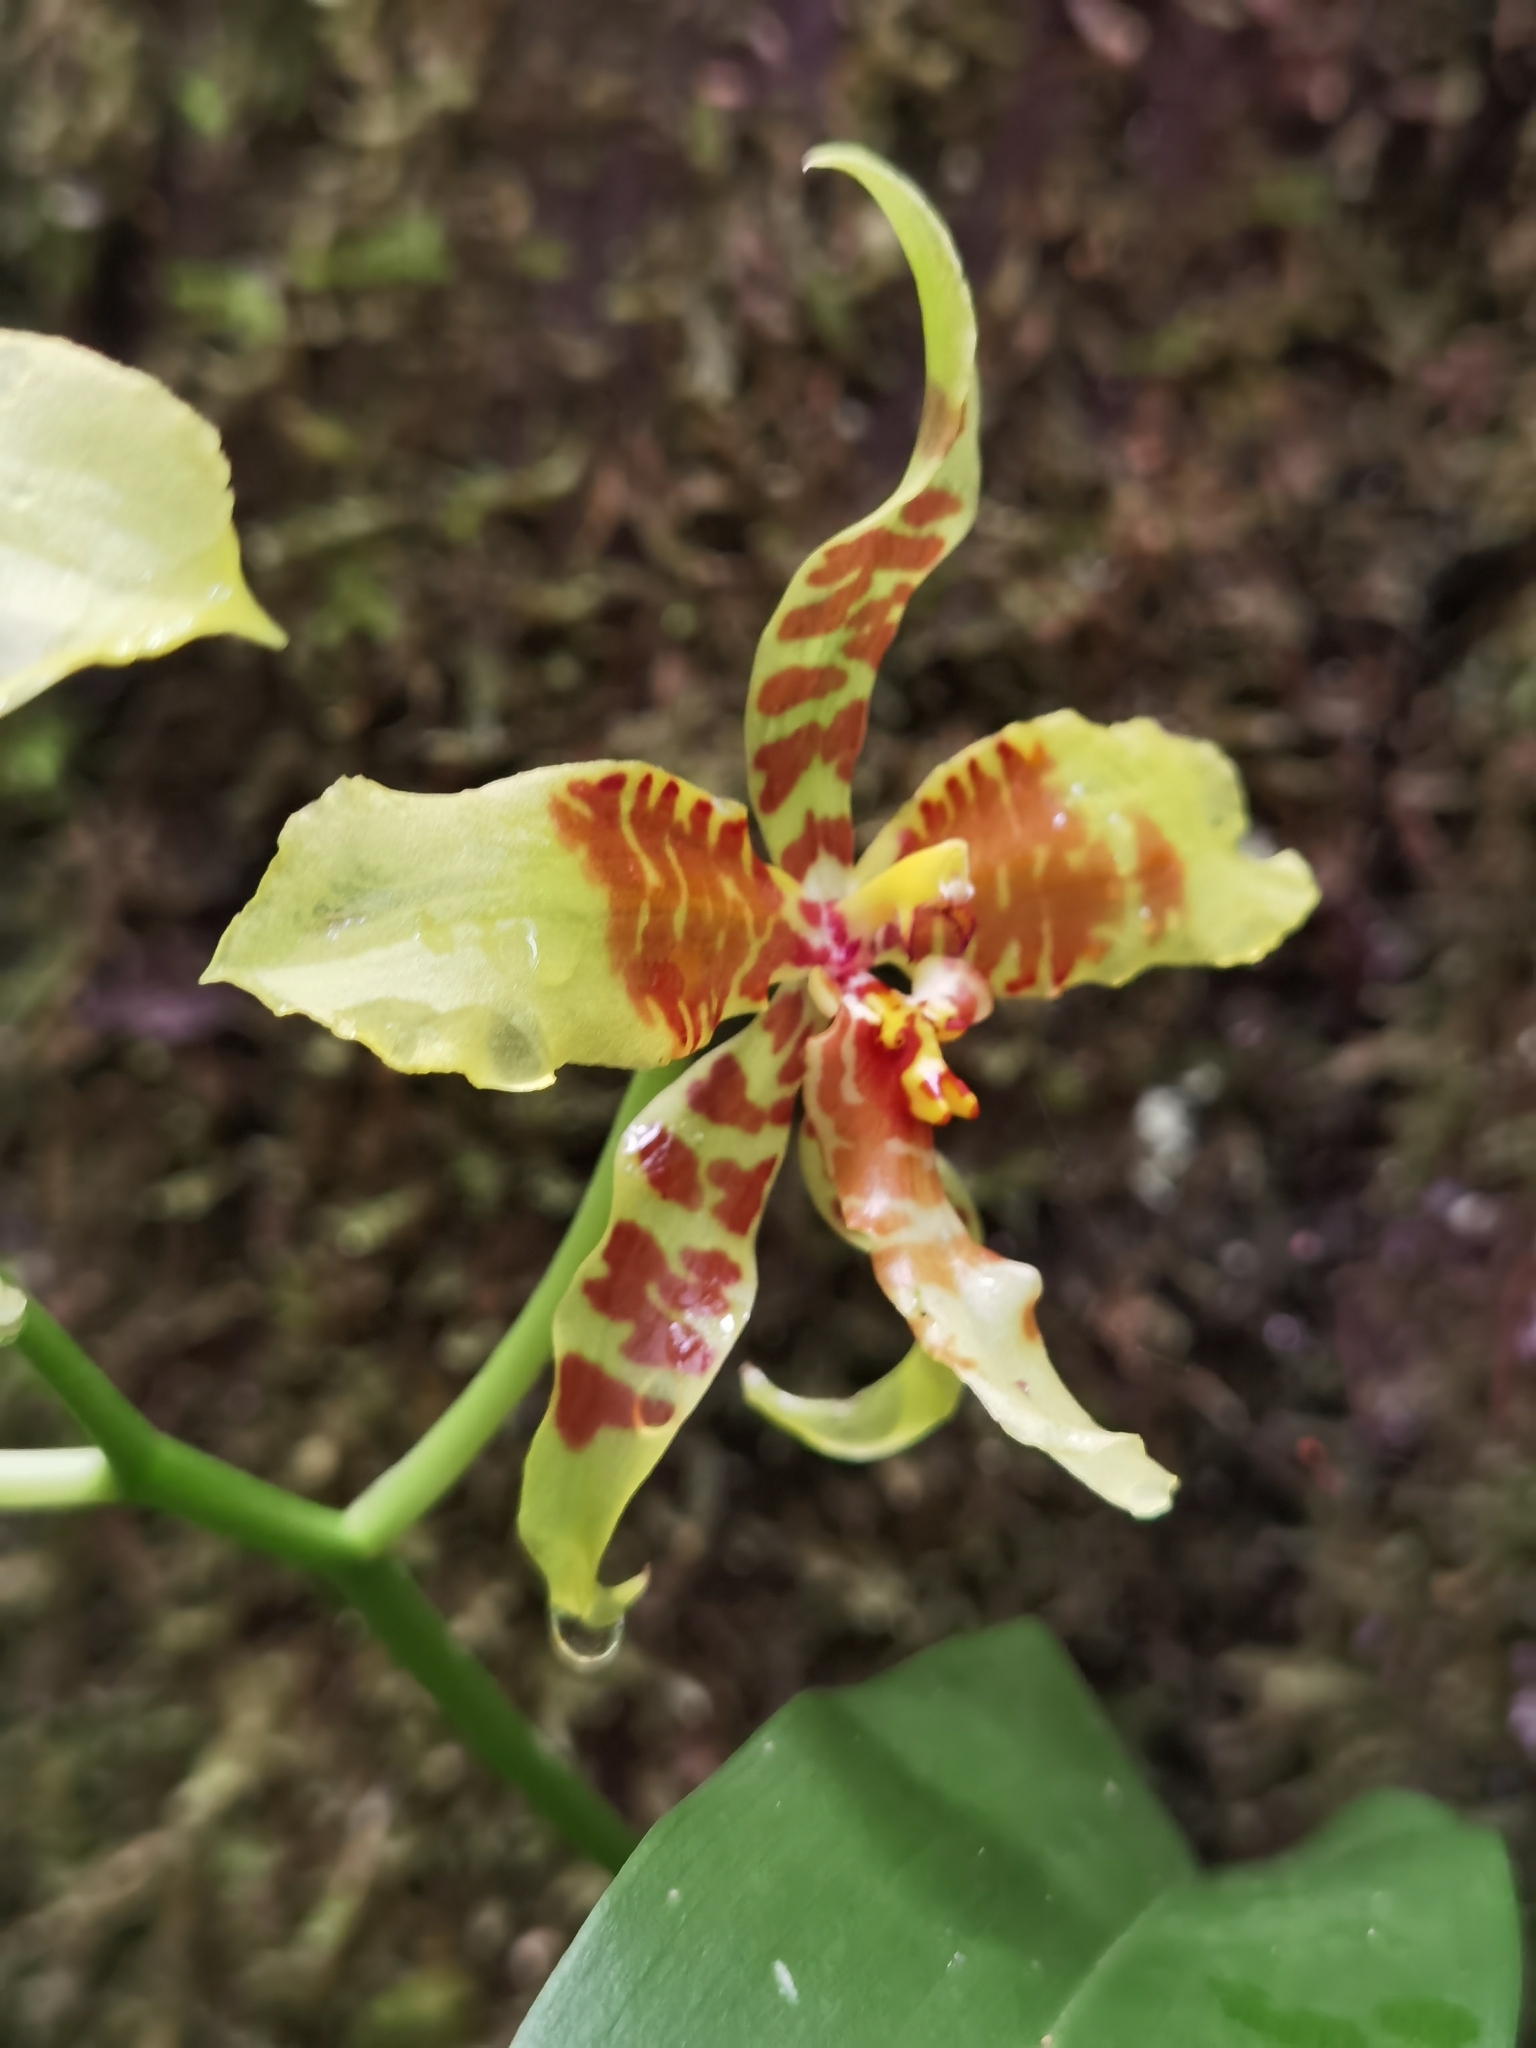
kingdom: Plantae
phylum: Tracheophyta
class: Liliopsida
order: Asparagales
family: Orchidaceae
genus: Rossioglossum
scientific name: Rossioglossum schlieperianum
